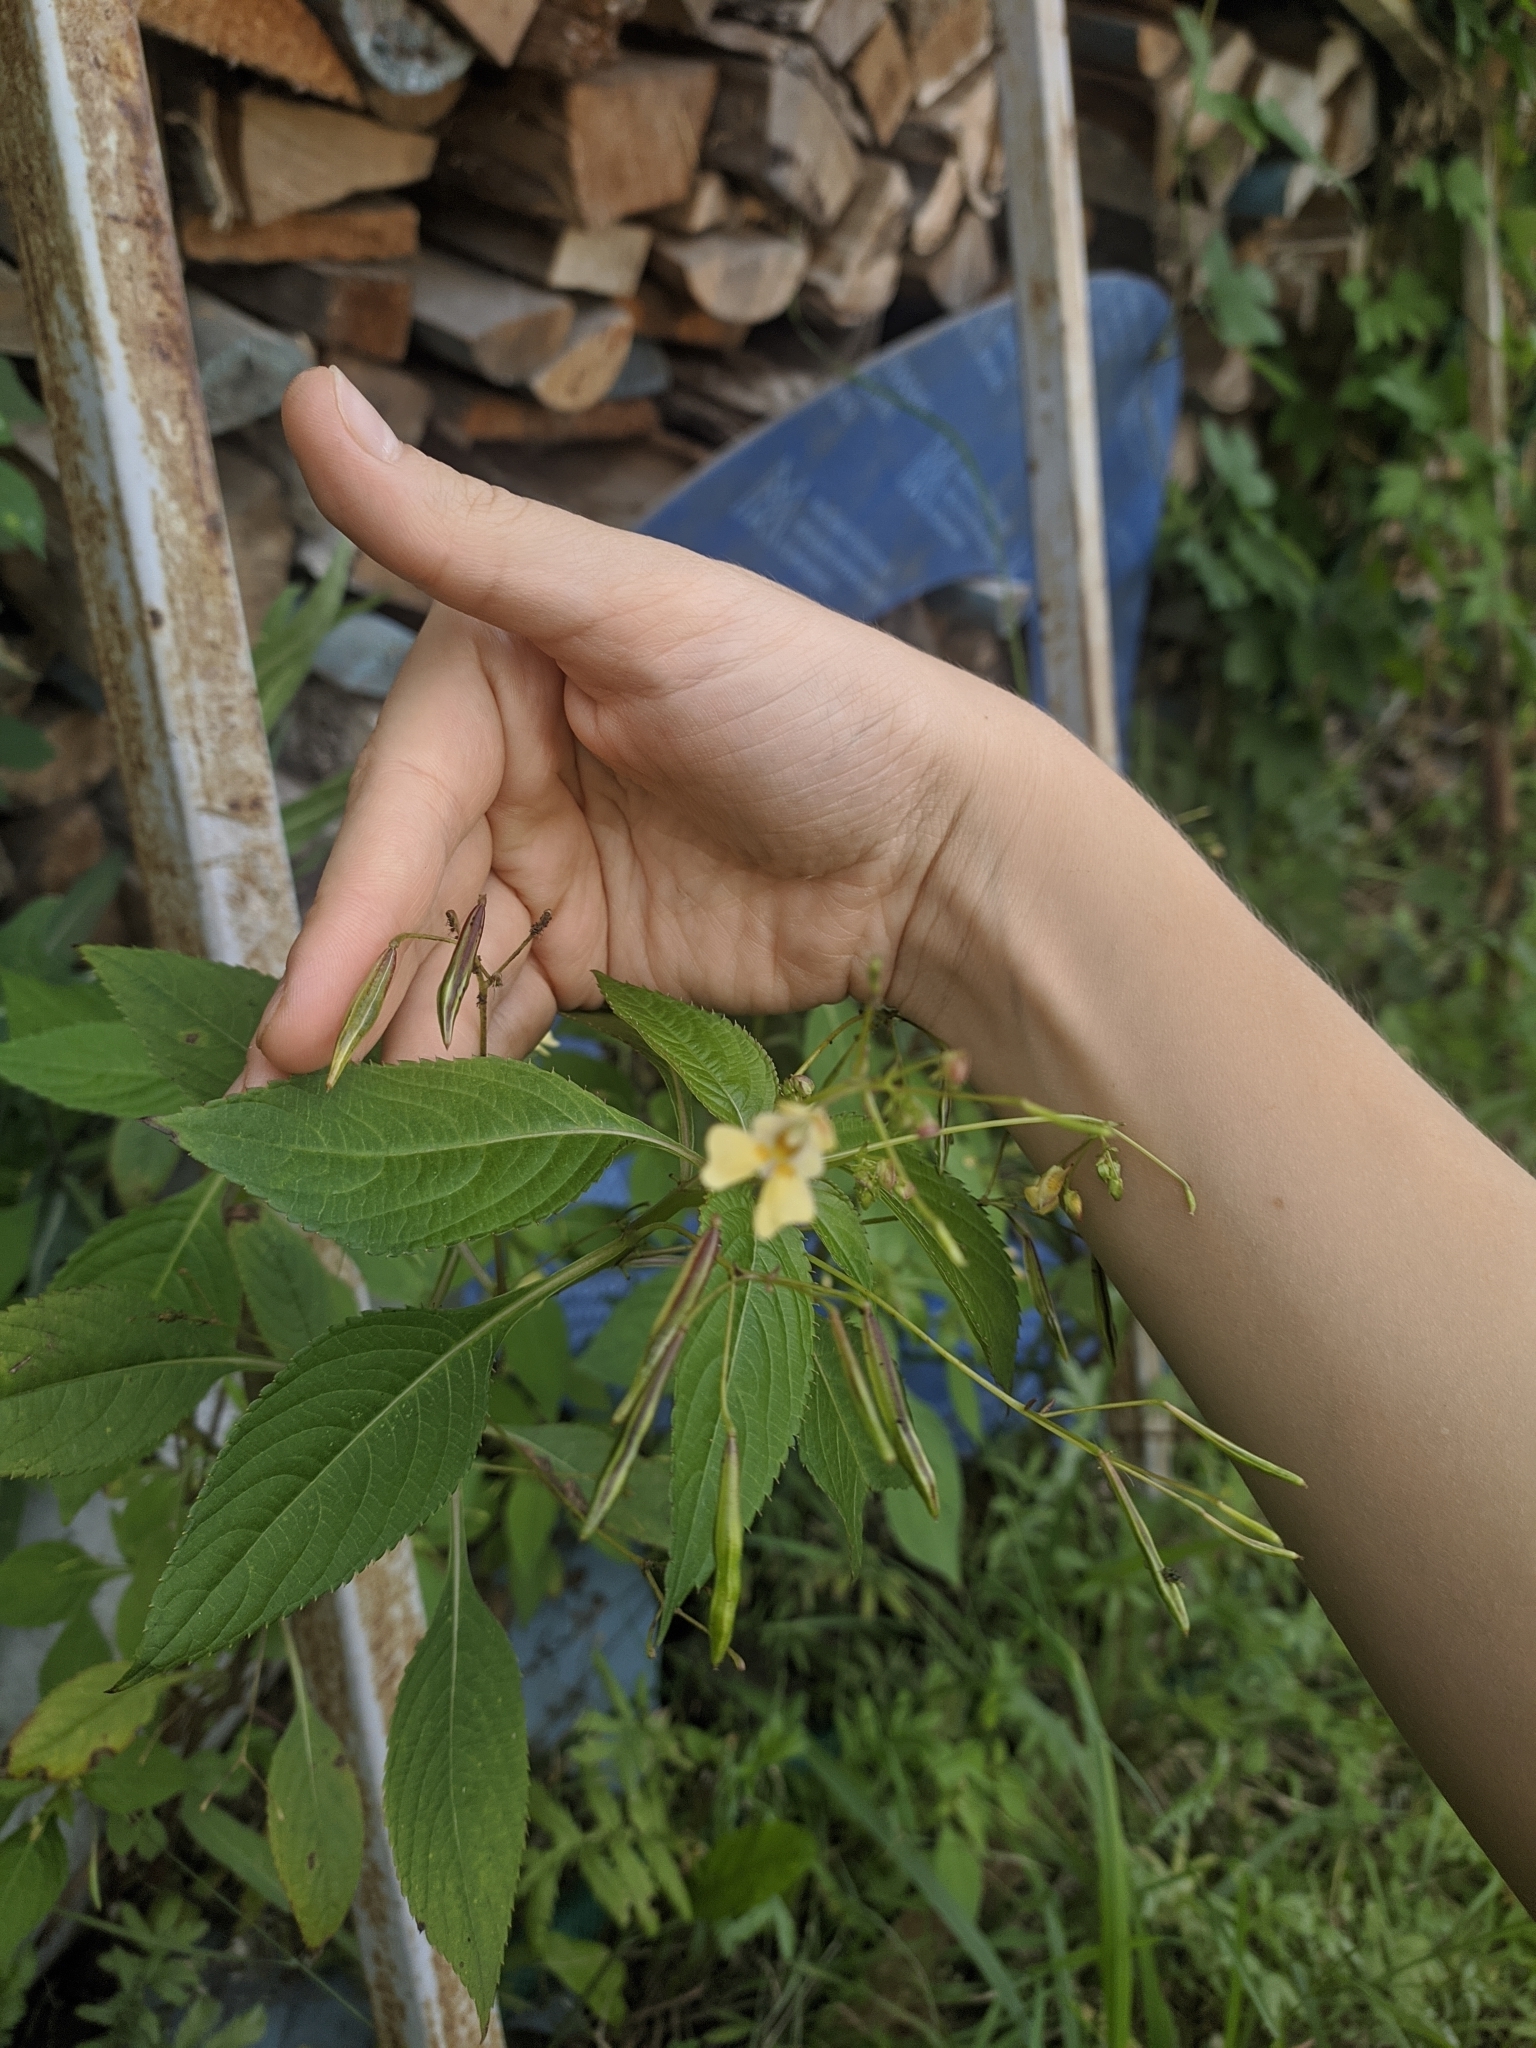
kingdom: Plantae
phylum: Tracheophyta
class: Magnoliopsida
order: Ericales
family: Balsaminaceae
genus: Impatiens
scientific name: Impatiens parviflora
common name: Small balsam
